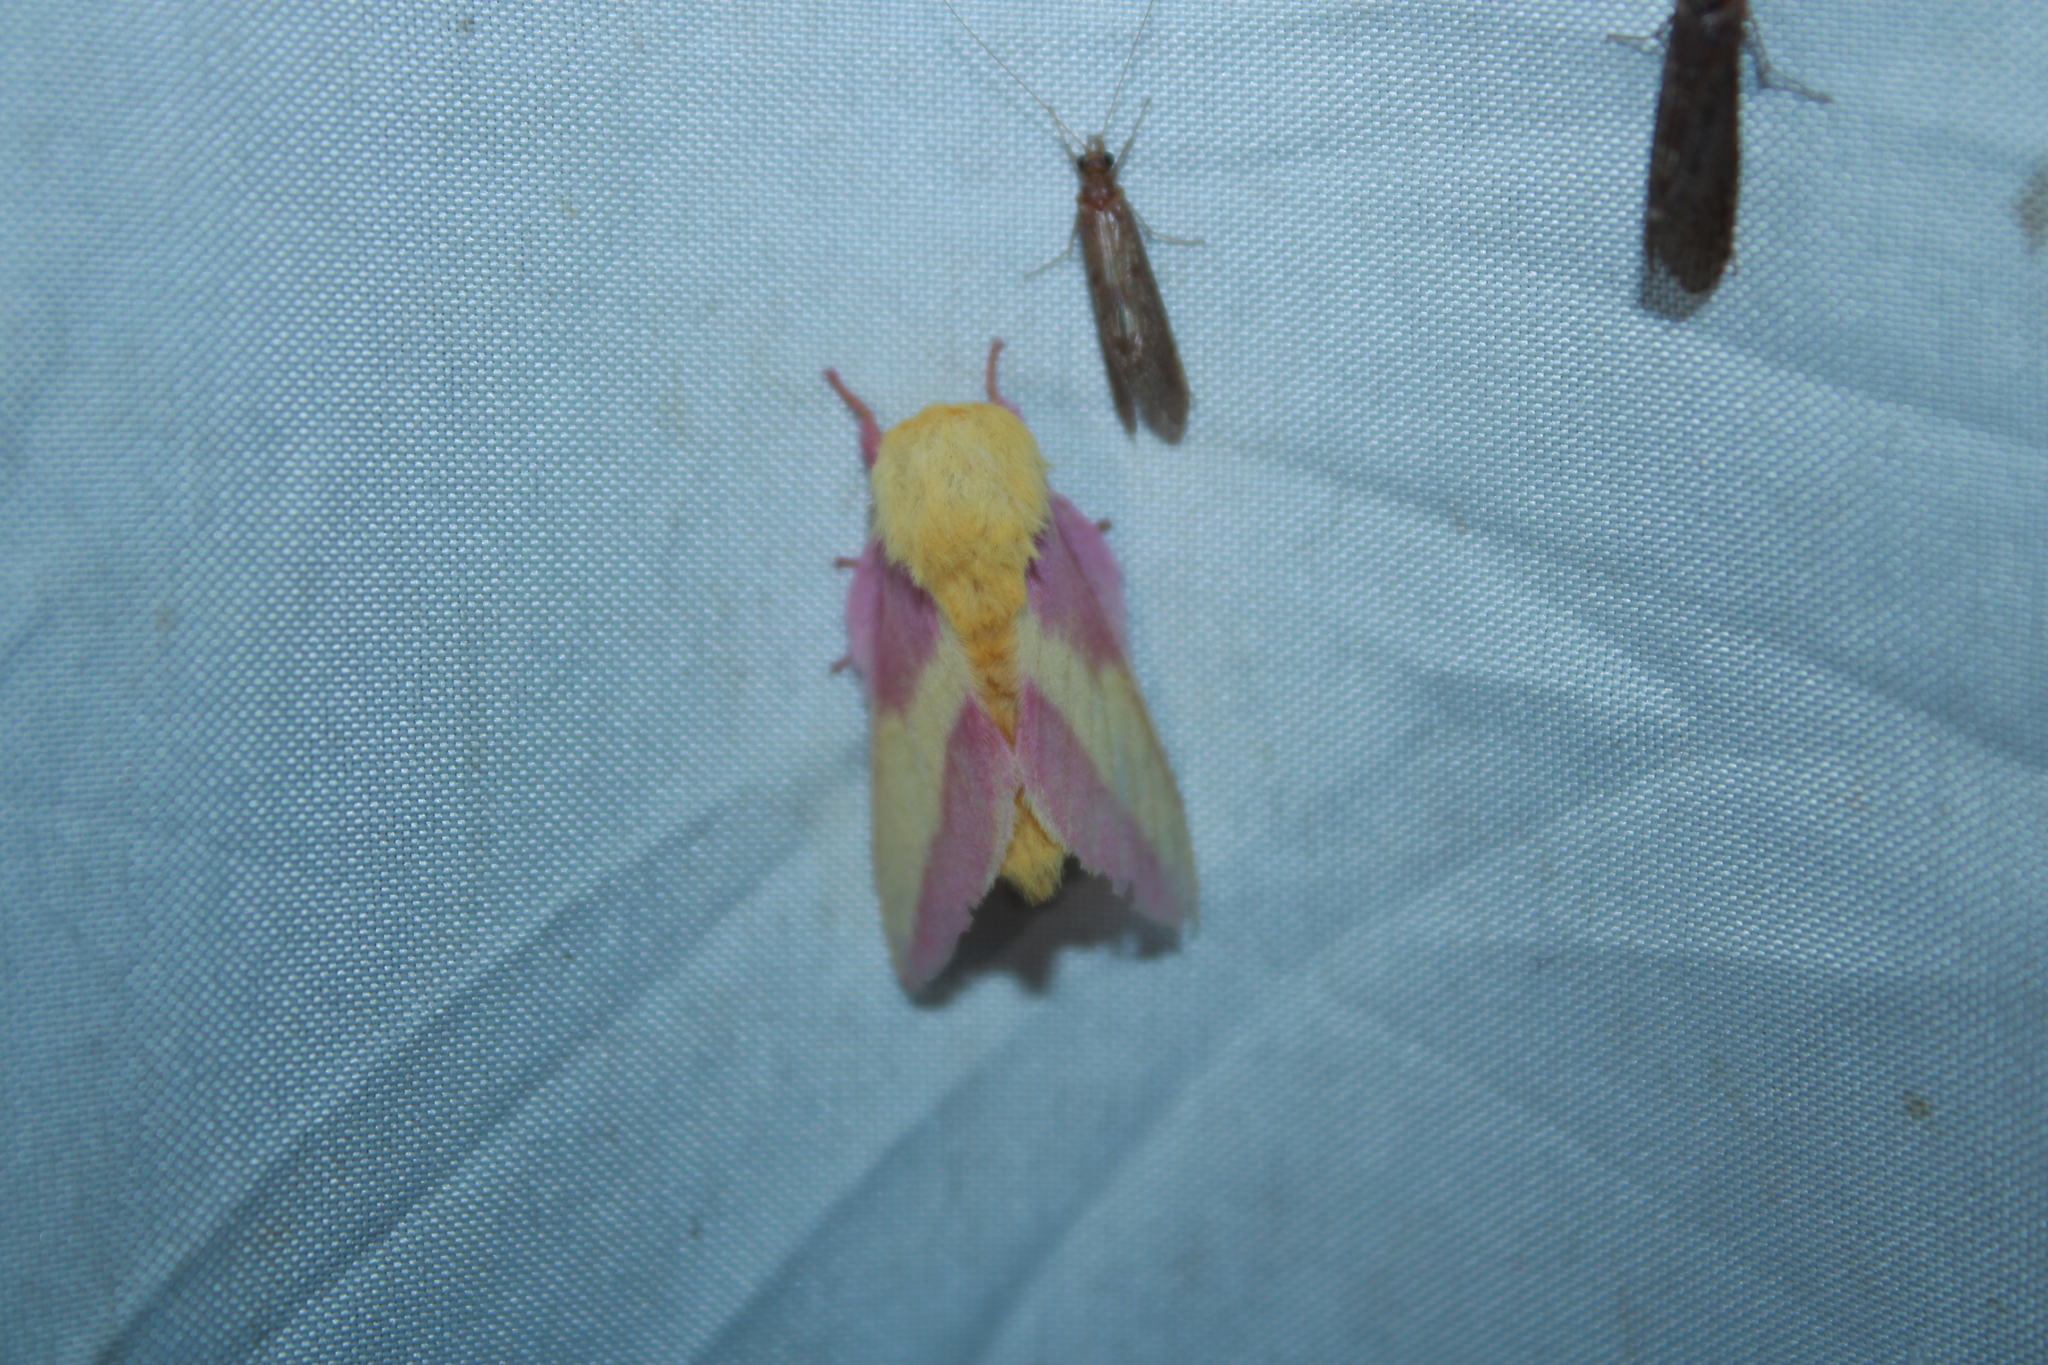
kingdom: Animalia
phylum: Arthropoda
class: Insecta
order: Lepidoptera
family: Saturniidae
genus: Dryocampa
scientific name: Dryocampa rubicunda
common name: Rosy maple moth
